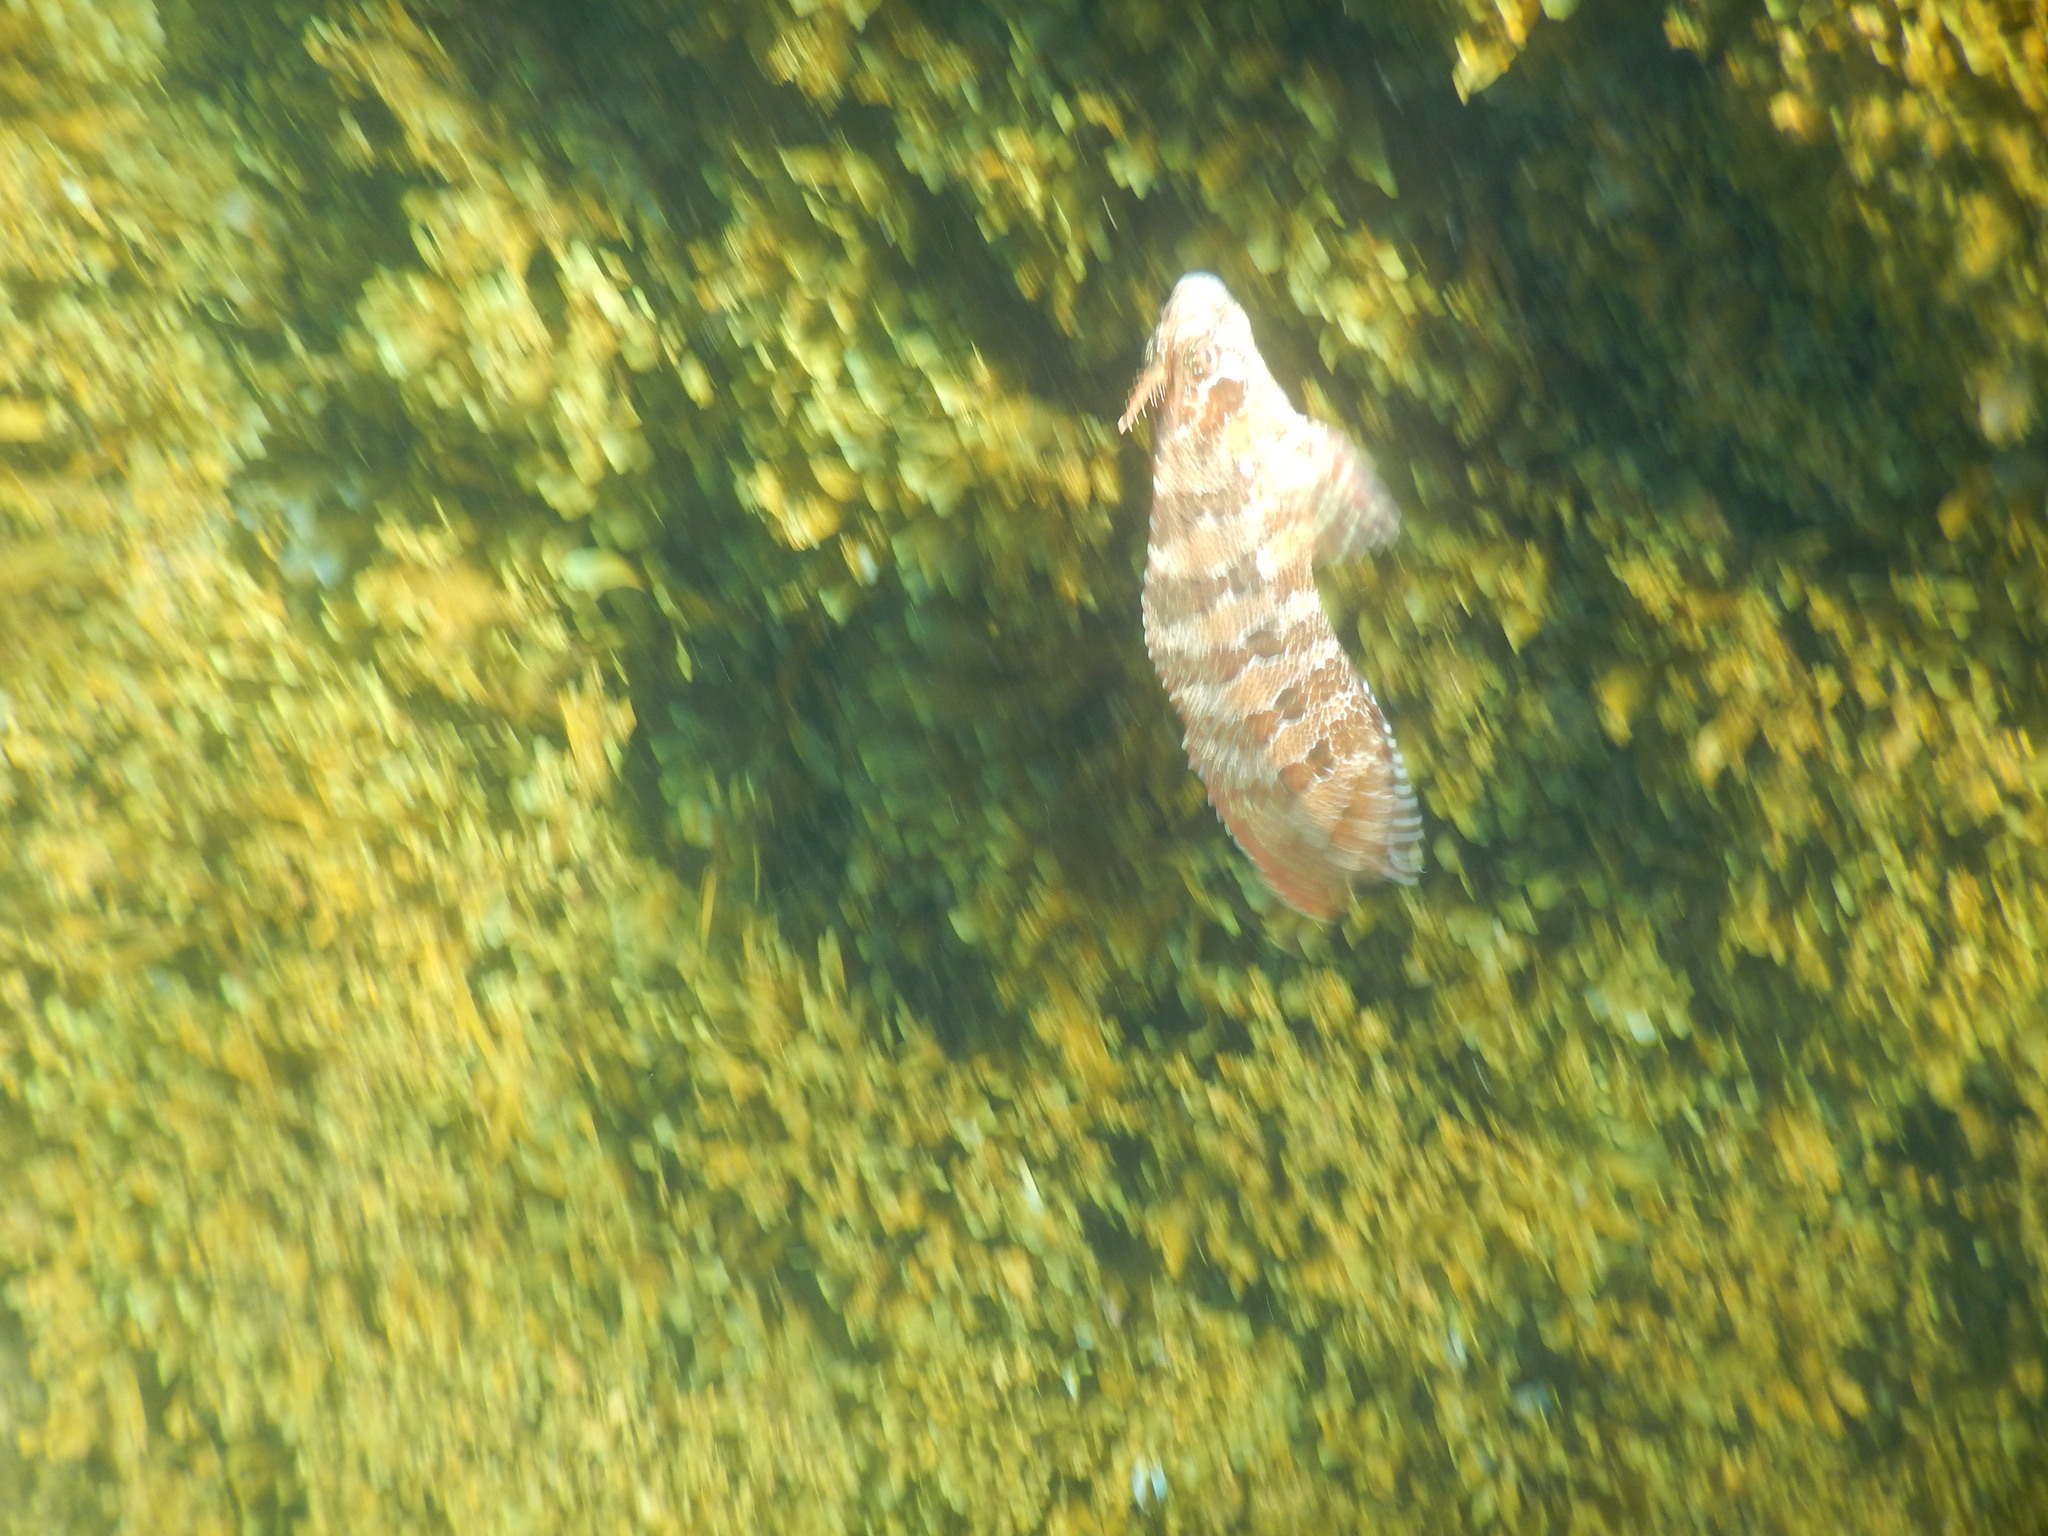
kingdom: Animalia
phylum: Chordata
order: Perciformes
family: Blenniidae
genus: Parablennius
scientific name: Parablennius gattorugine
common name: Tompot blenny
